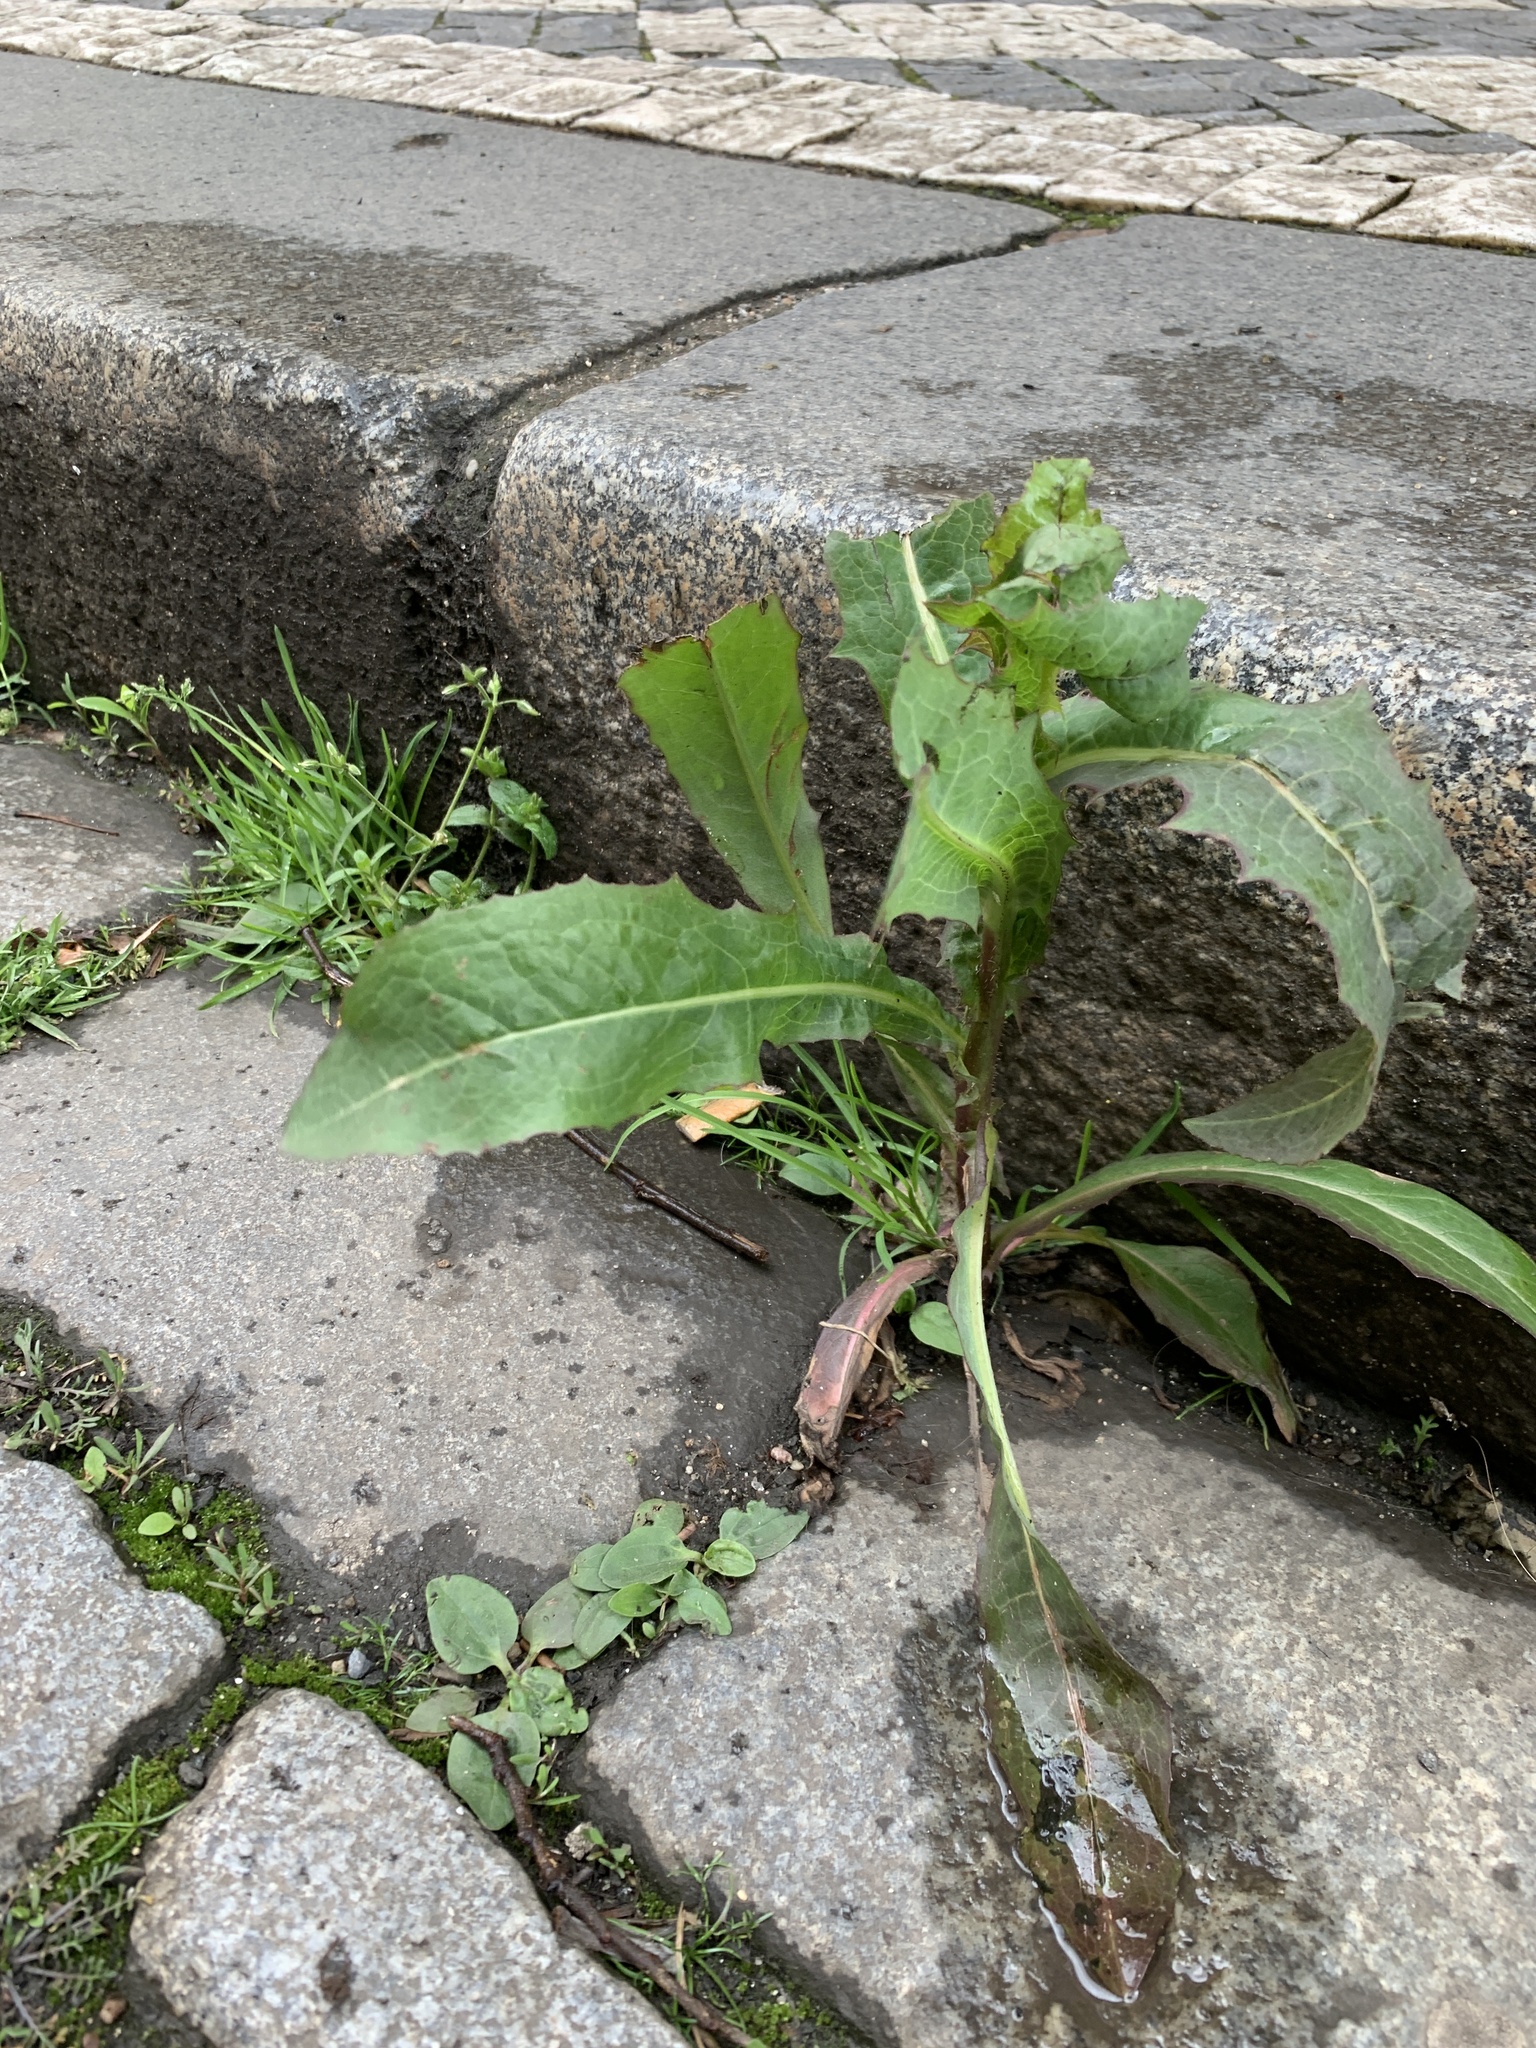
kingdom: Plantae
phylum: Tracheophyta
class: Magnoliopsida
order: Asterales
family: Asteraceae
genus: Lactuca
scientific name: Lactuca serriola
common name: Prickly lettuce
